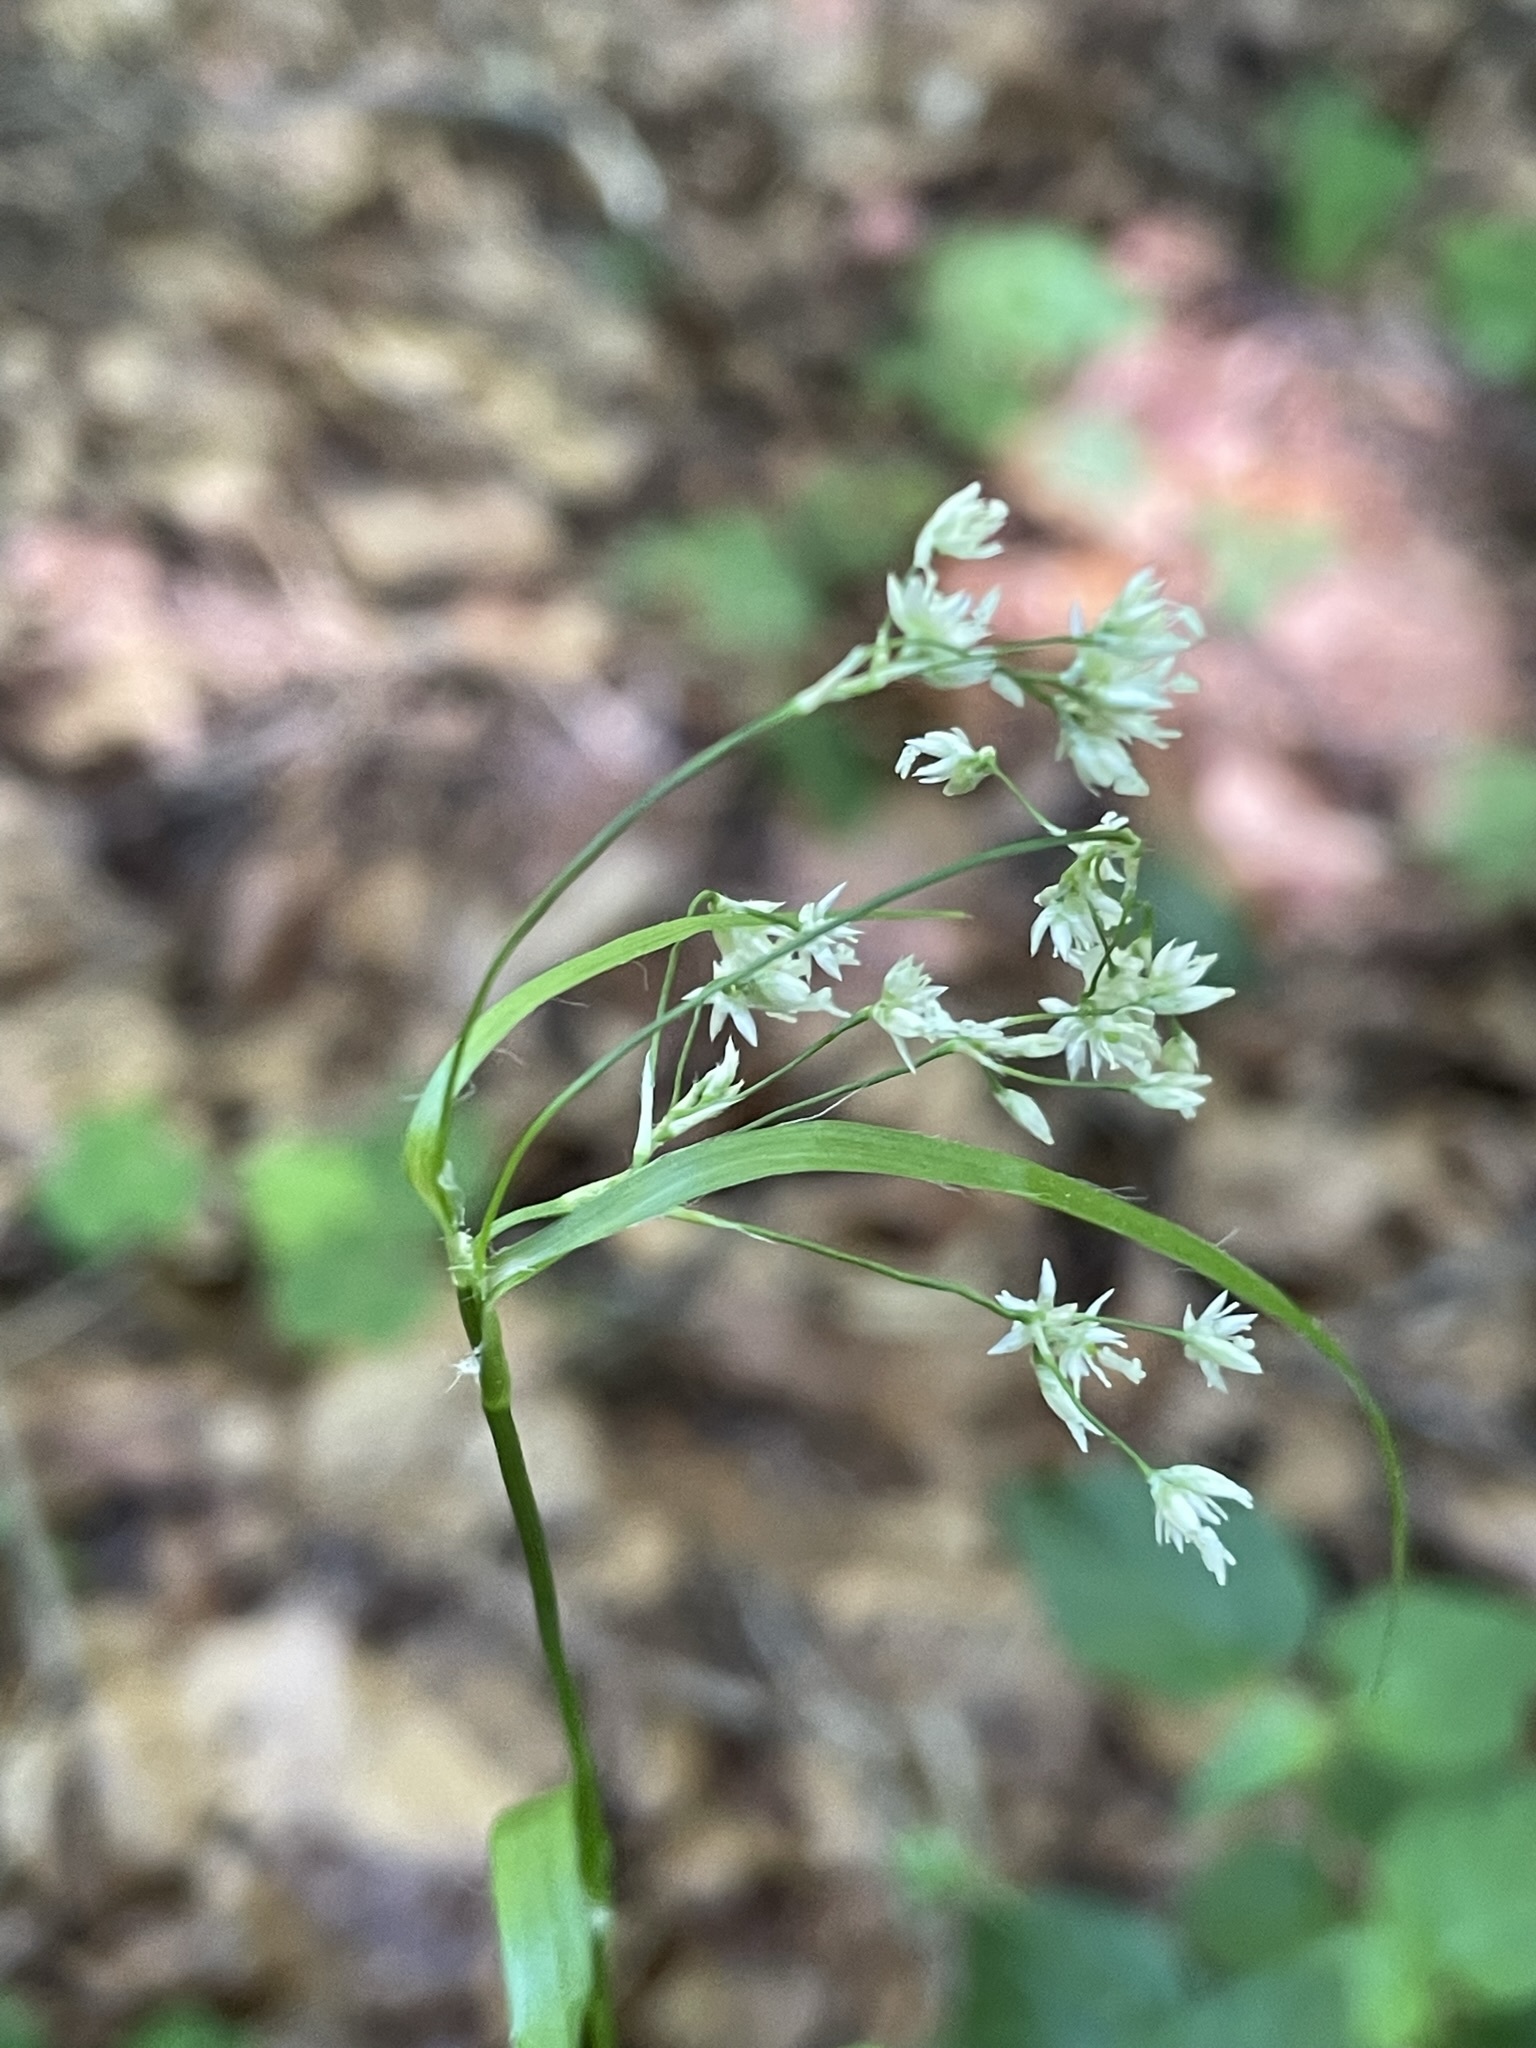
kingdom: Plantae
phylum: Tracheophyta
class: Liliopsida
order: Poales
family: Juncaceae
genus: Luzula
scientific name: Luzula luzuloides
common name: White wood-rush
